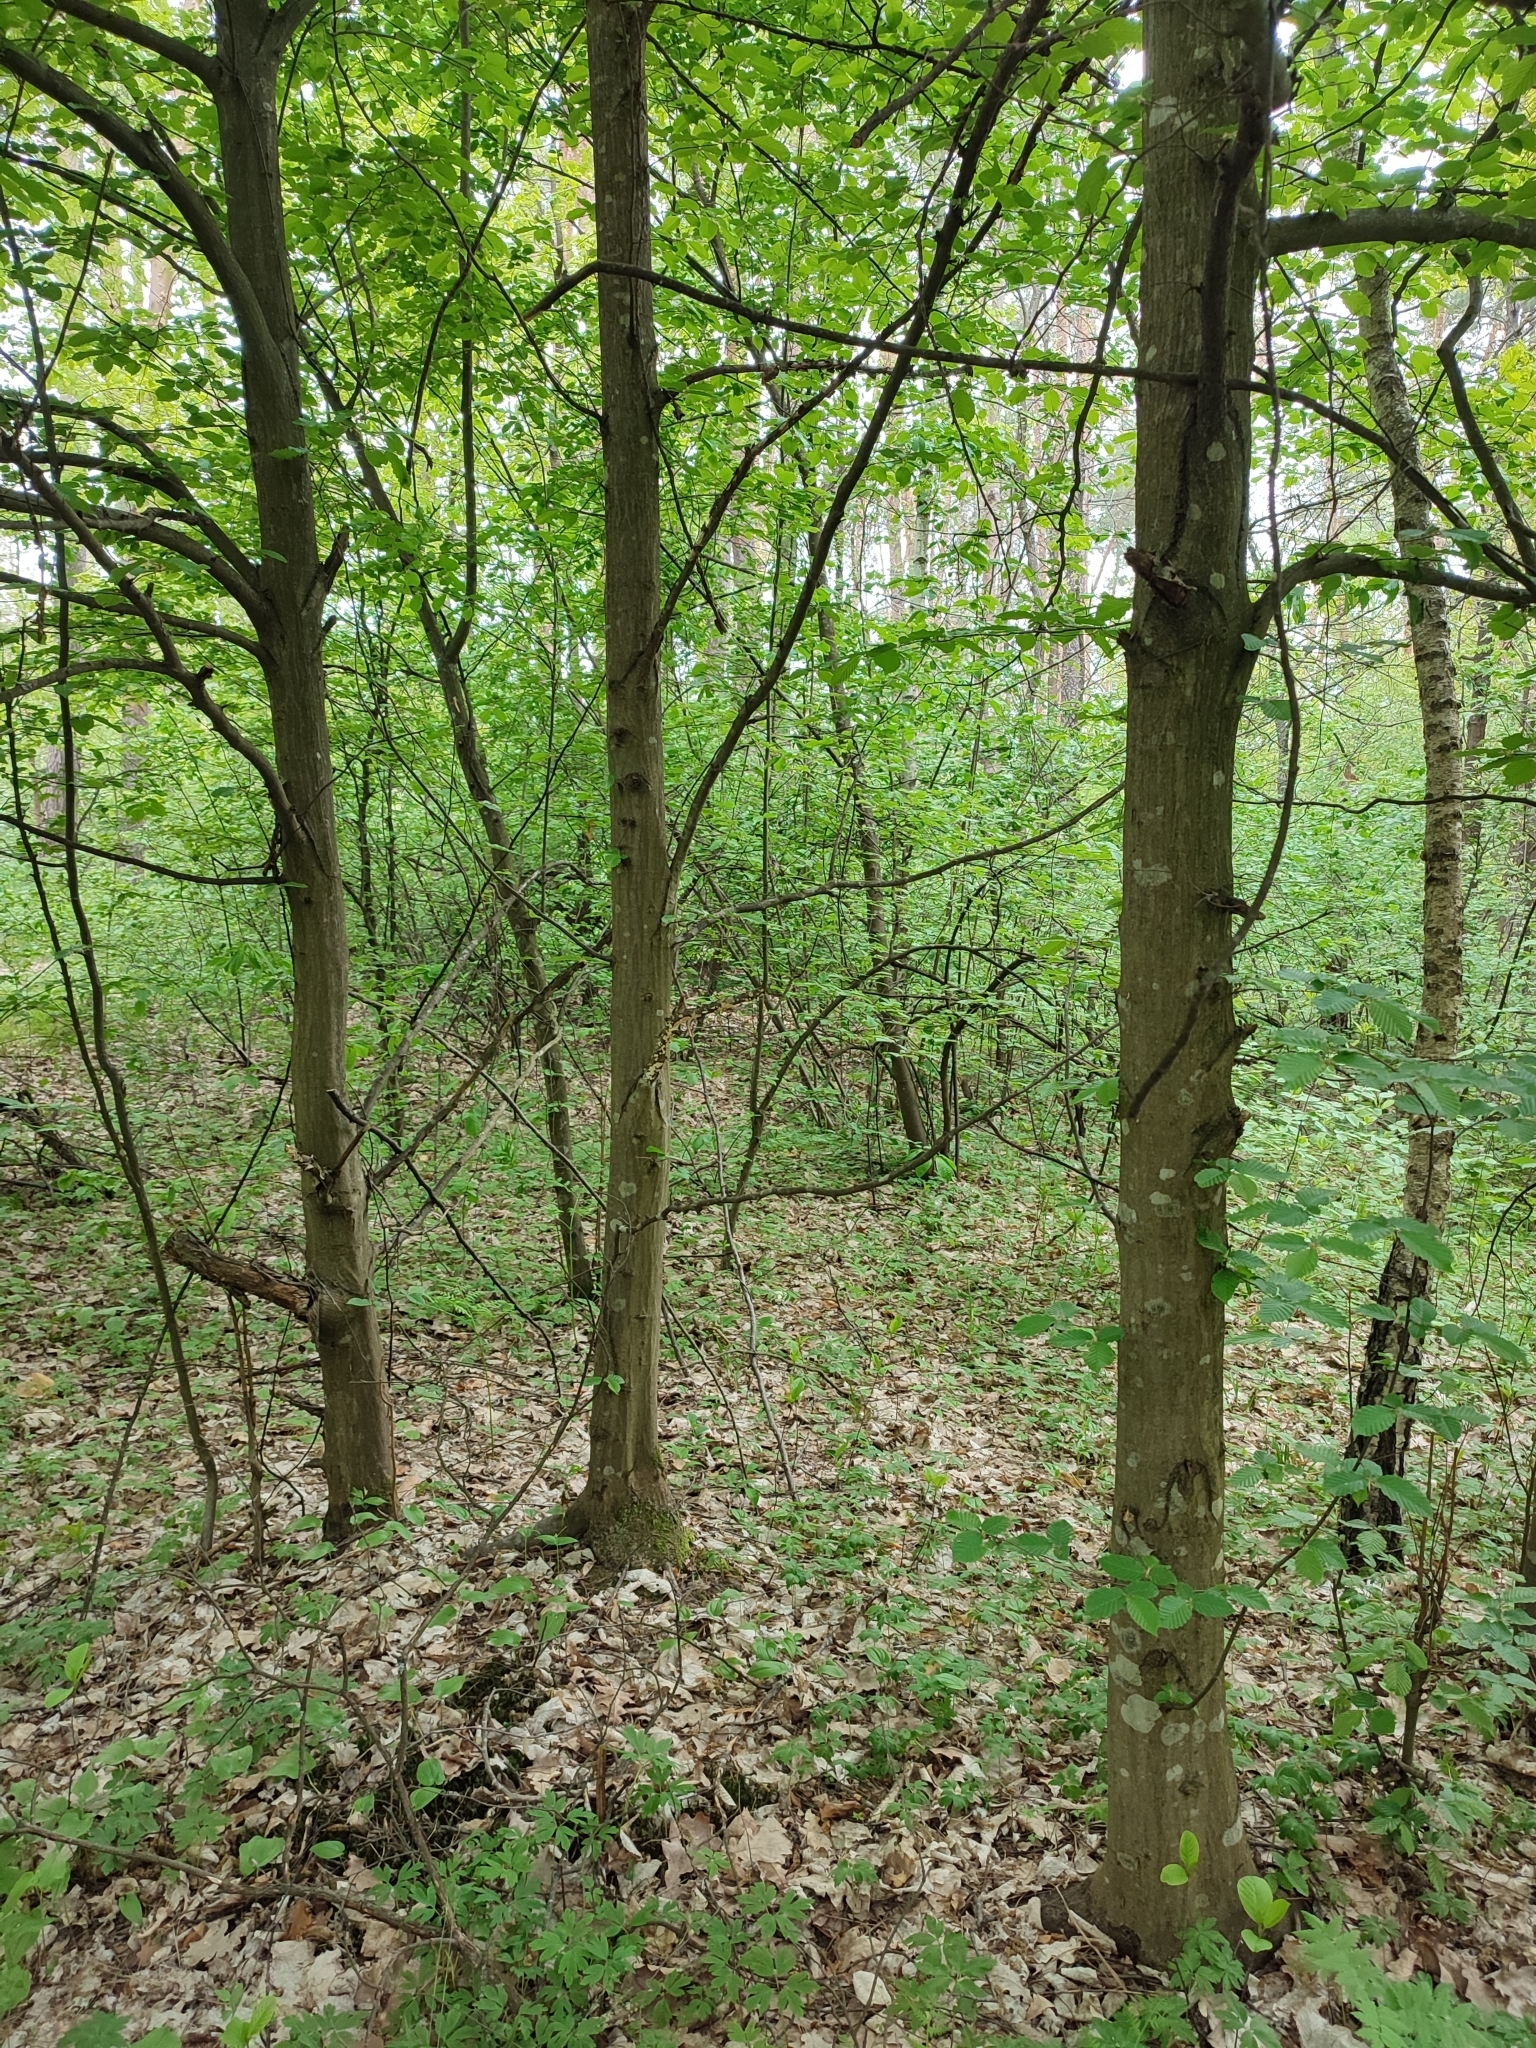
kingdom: Plantae
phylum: Tracheophyta
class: Magnoliopsida
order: Fagales
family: Betulaceae
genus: Carpinus
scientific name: Carpinus betulus
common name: Hornbeam
